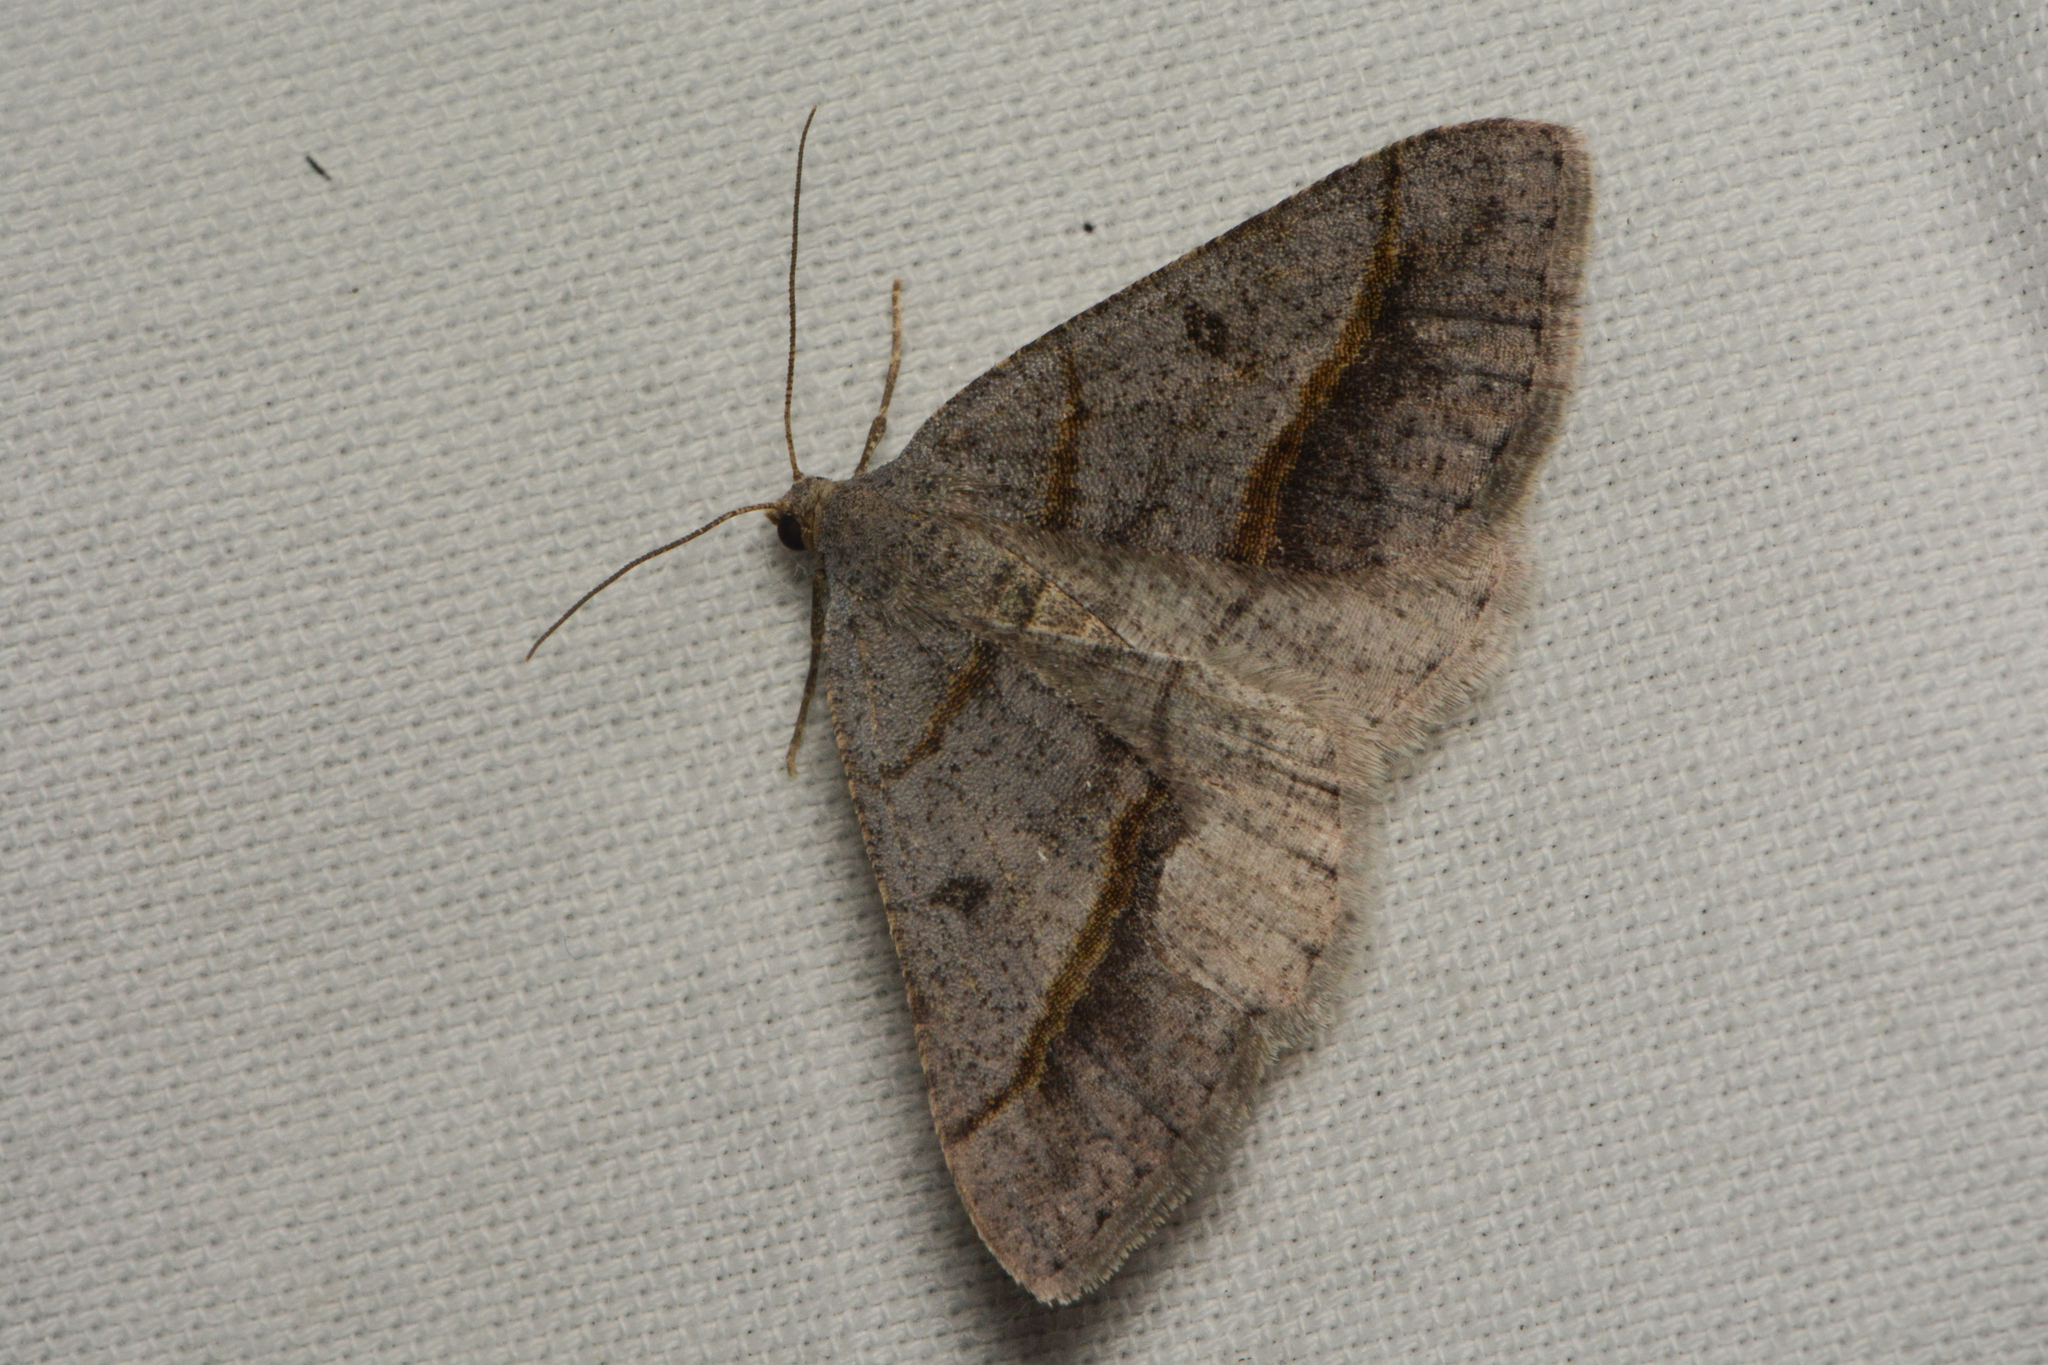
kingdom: Animalia
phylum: Arthropoda
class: Insecta
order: Lepidoptera
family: Geometridae
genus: Digrammia
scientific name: Digrammia neptaria
